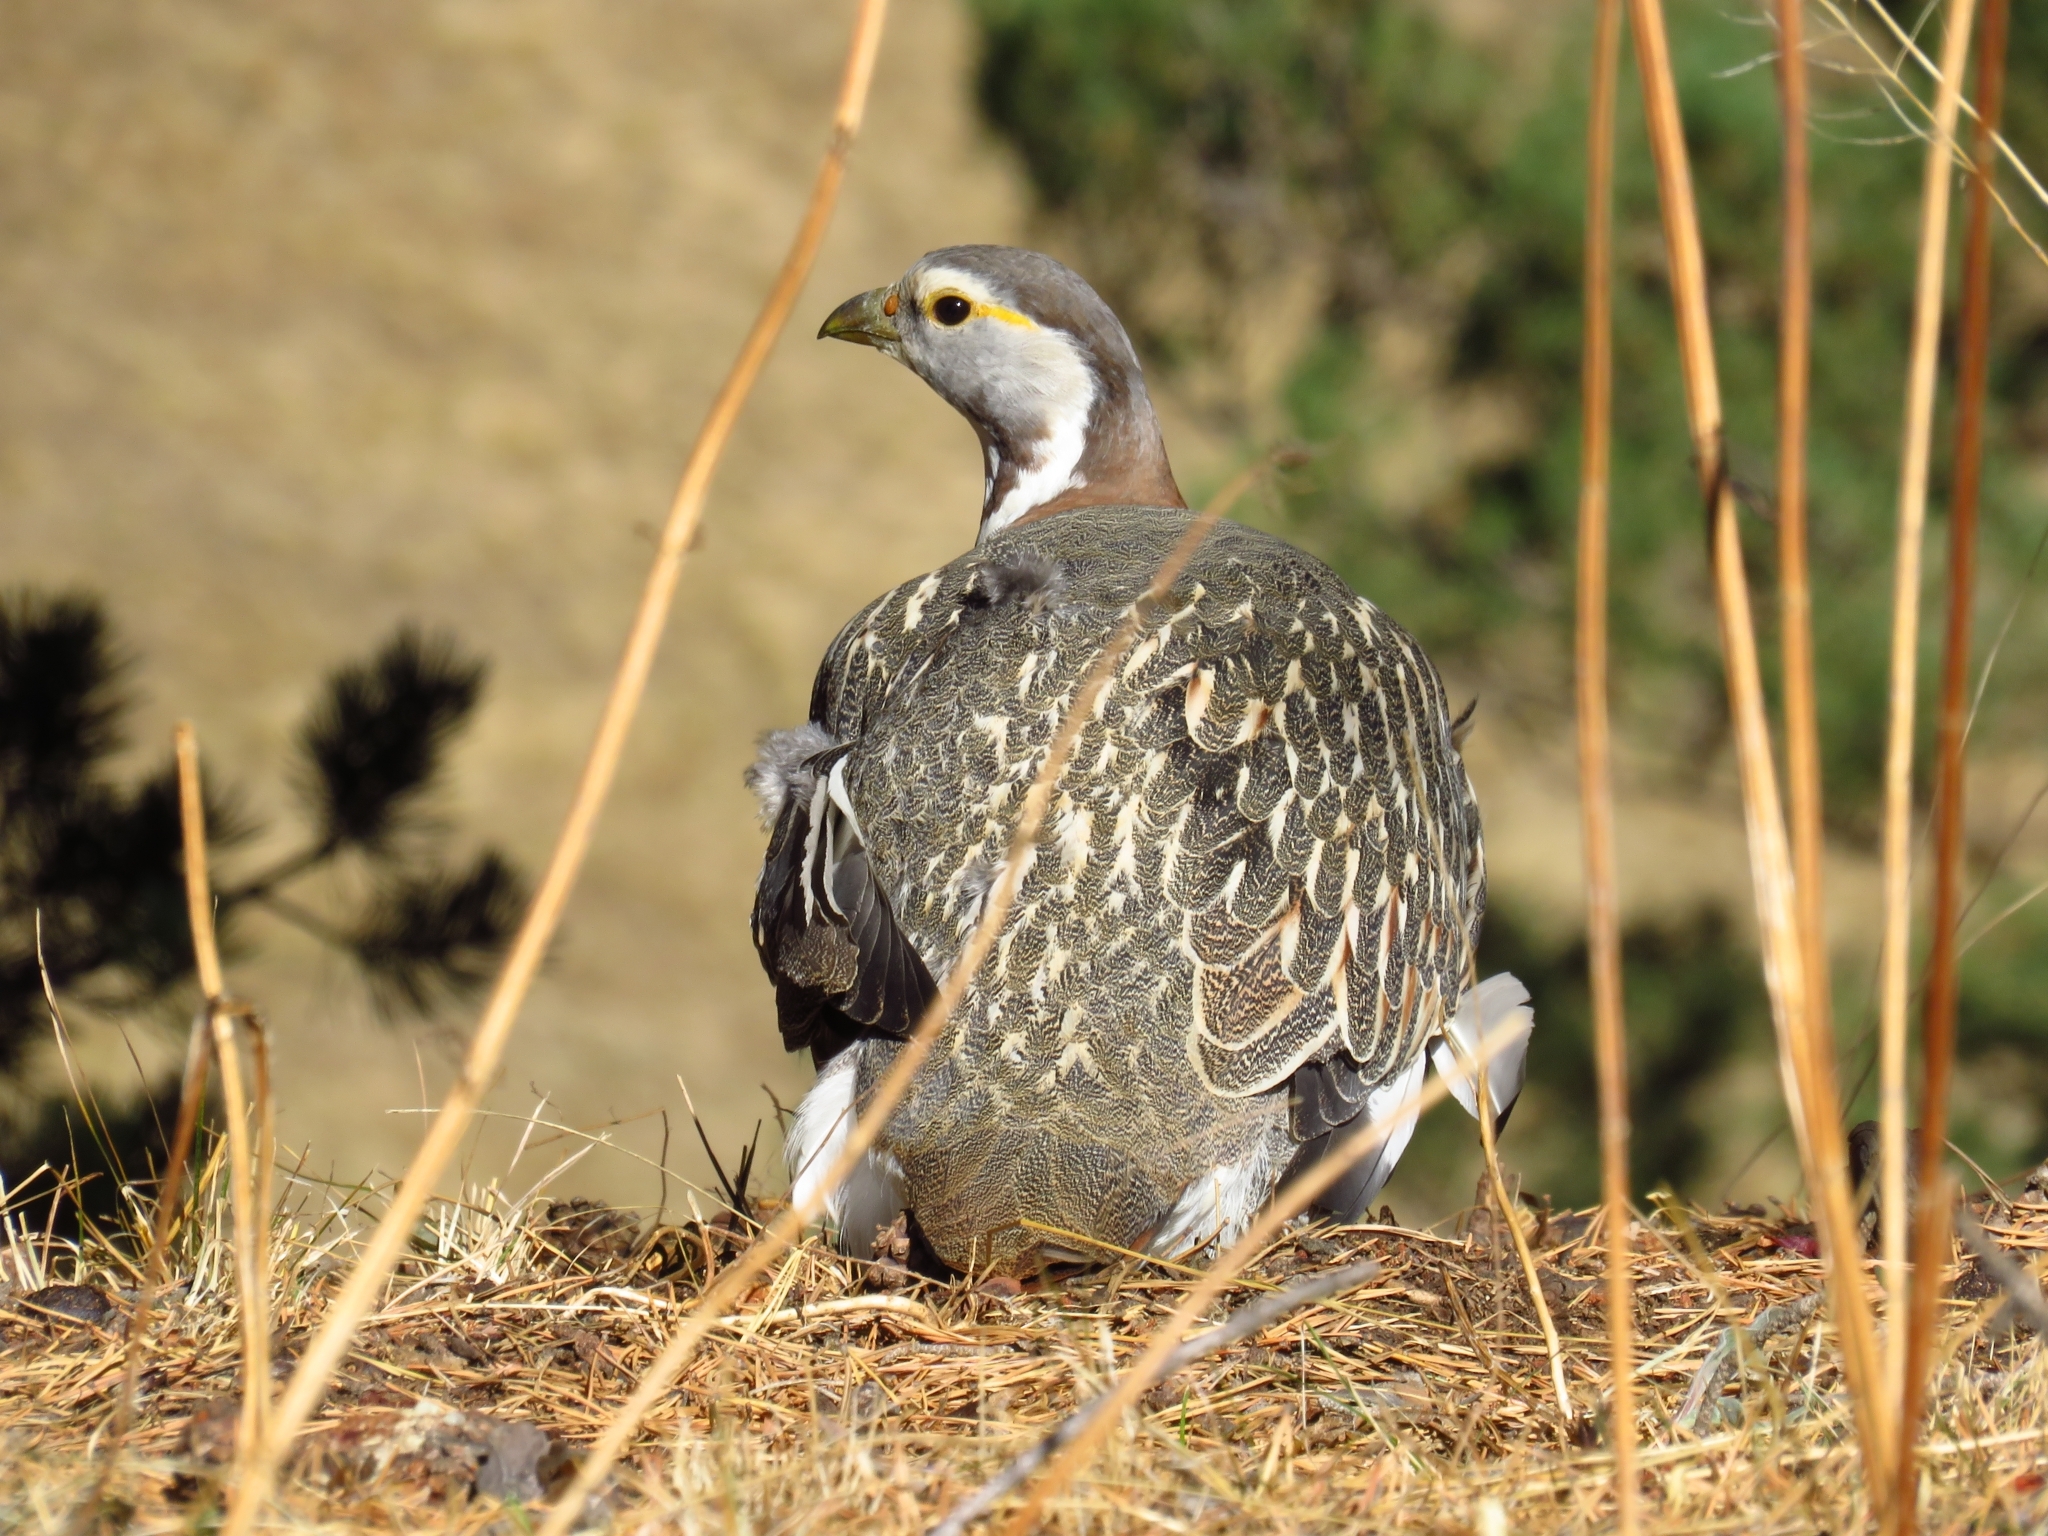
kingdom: Animalia
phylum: Chordata
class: Aves
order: Galliformes
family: Phasianidae
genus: Tetraogallus
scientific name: Tetraogallus caucasicus
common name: Caucasian snowcock
